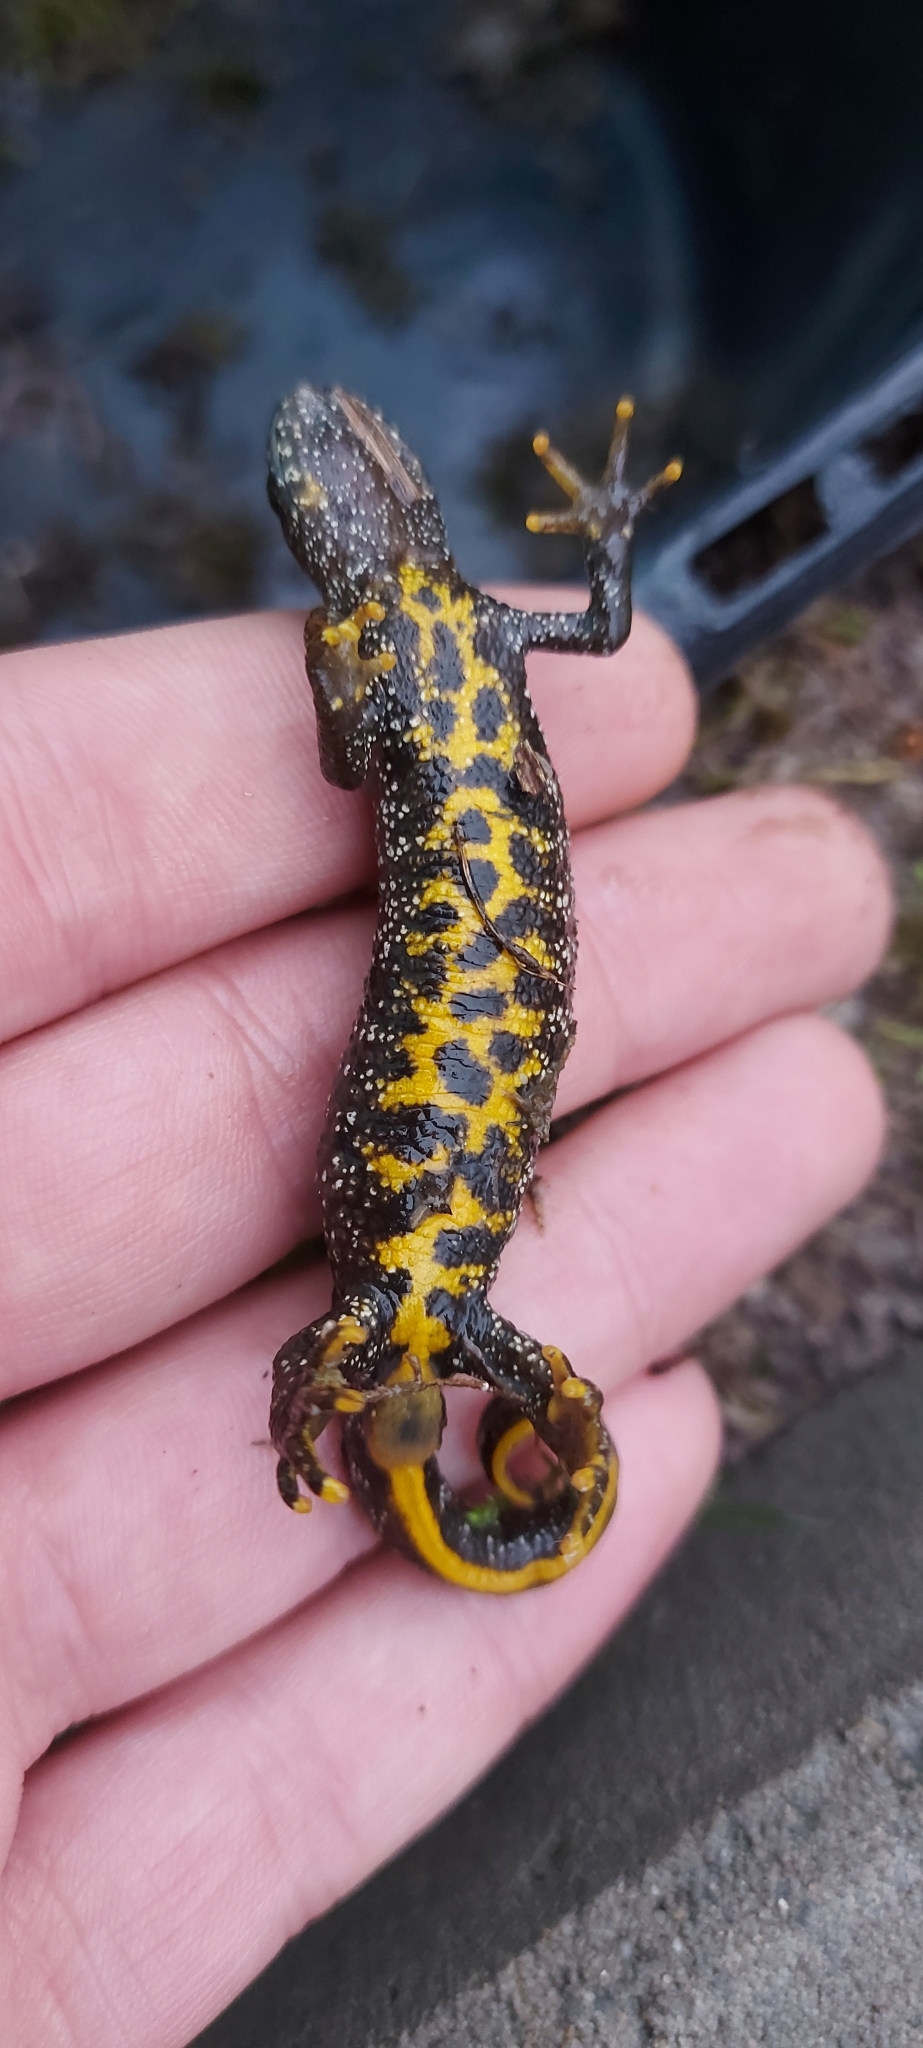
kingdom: Animalia
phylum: Chordata
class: Amphibia
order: Caudata
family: Salamandridae
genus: Triturus
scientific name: Triturus cristatus
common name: Crested newt
